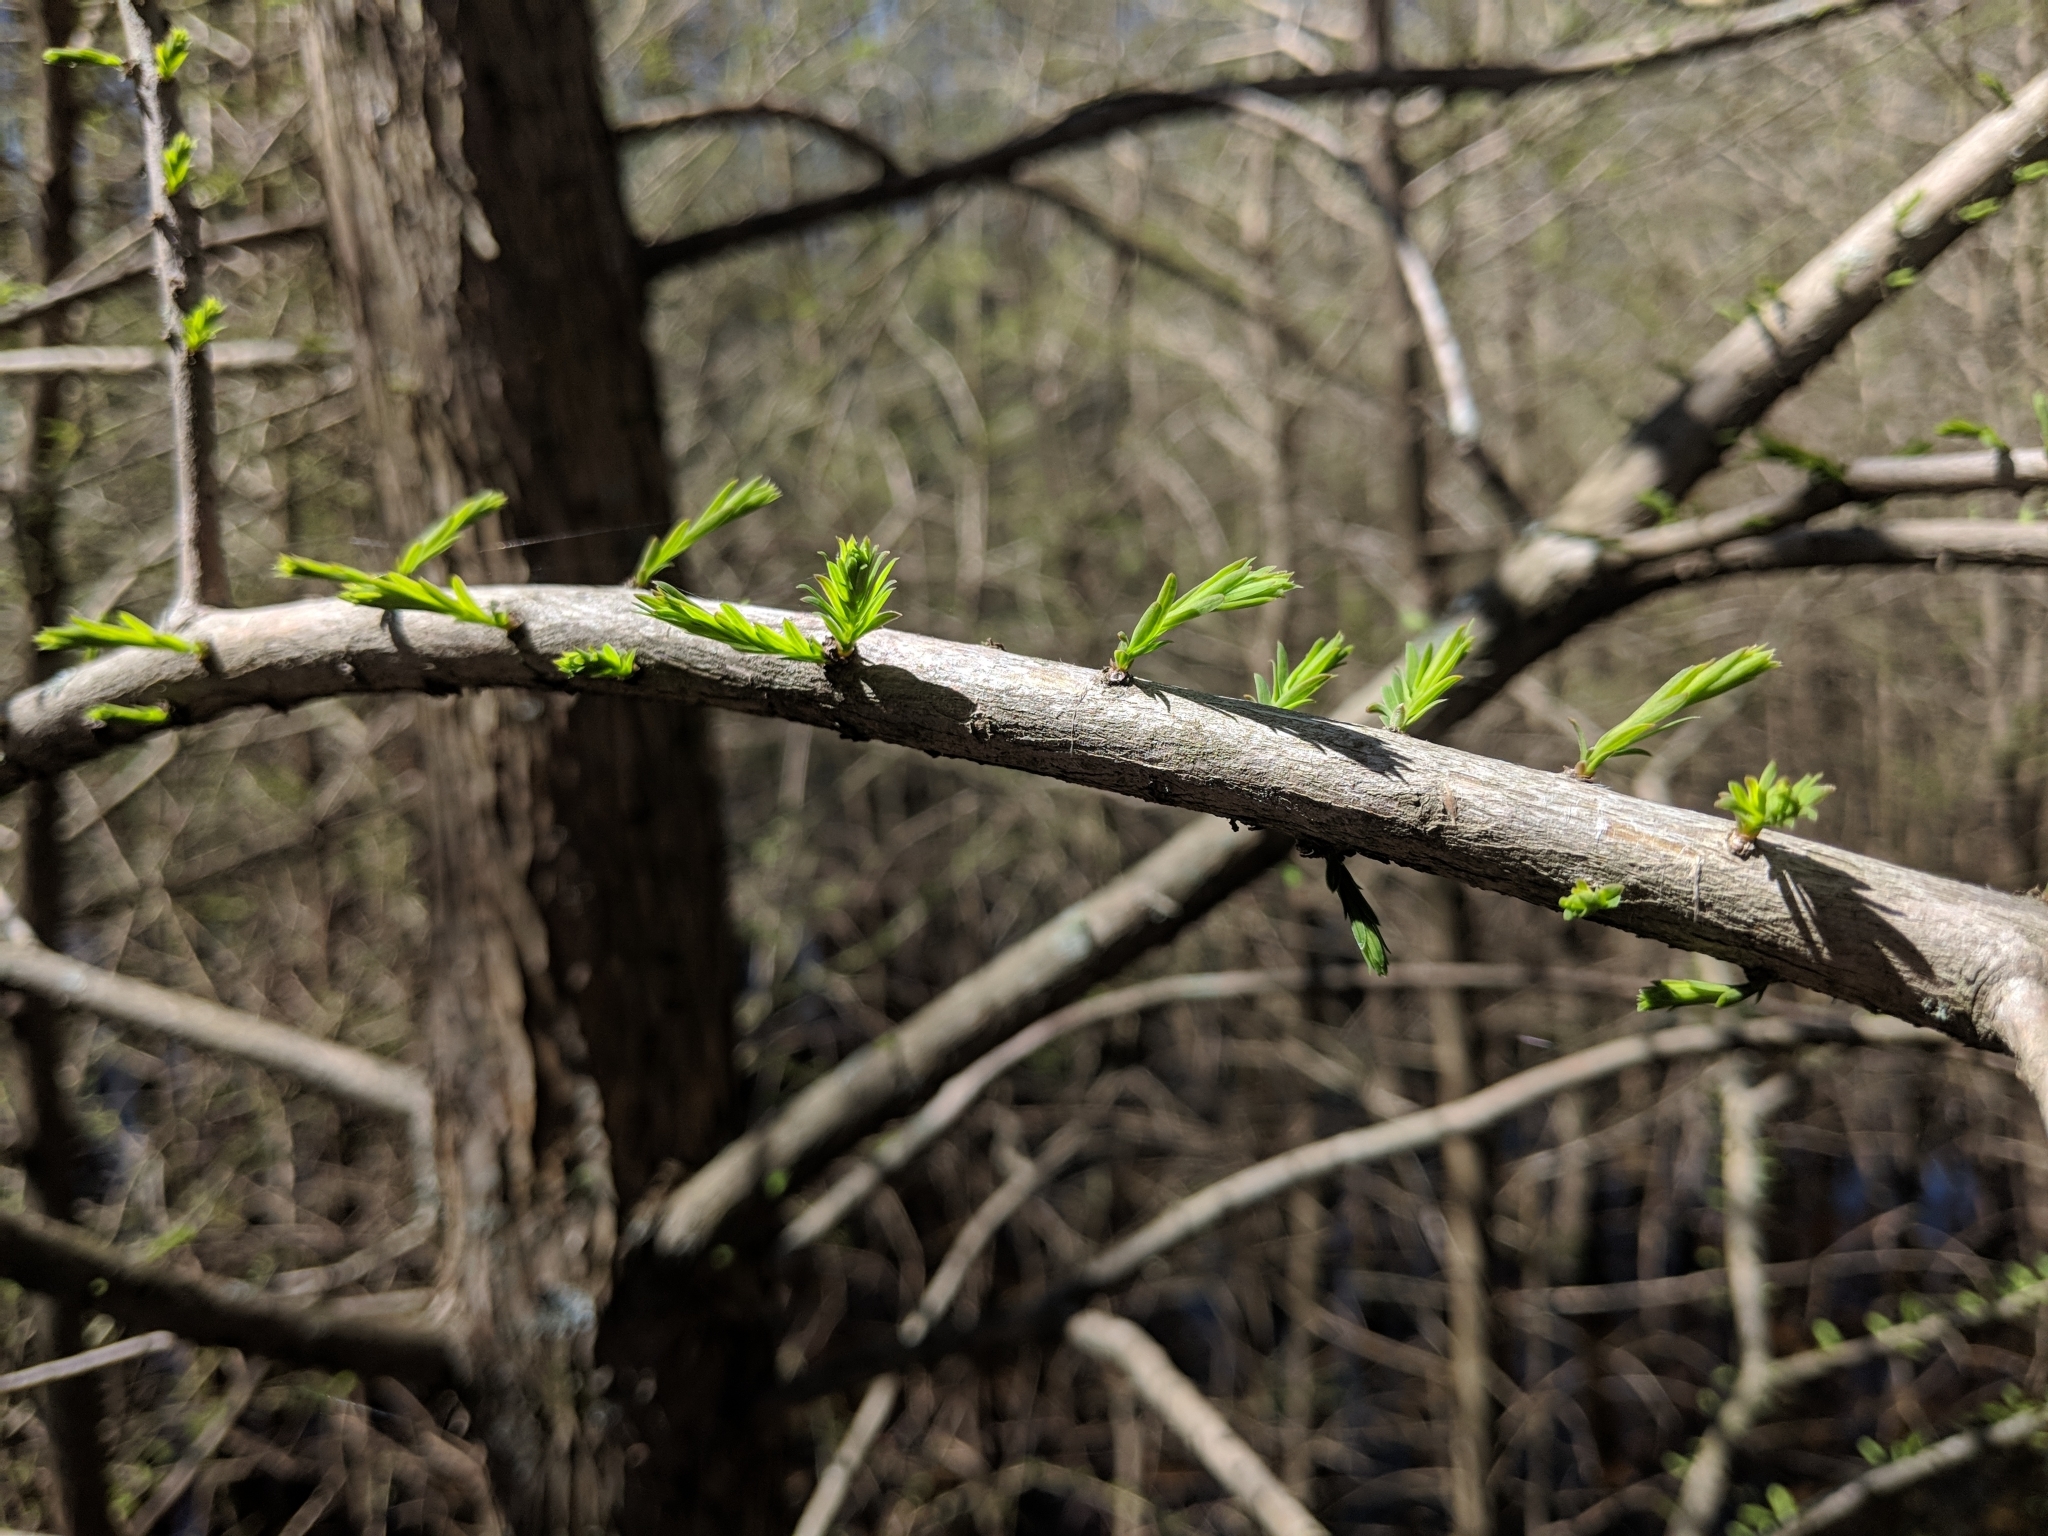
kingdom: Plantae
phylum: Tracheophyta
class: Pinopsida
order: Pinales
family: Cupressaceae
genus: Taxodium
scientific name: Taxodium distichum
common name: Bald cypress
